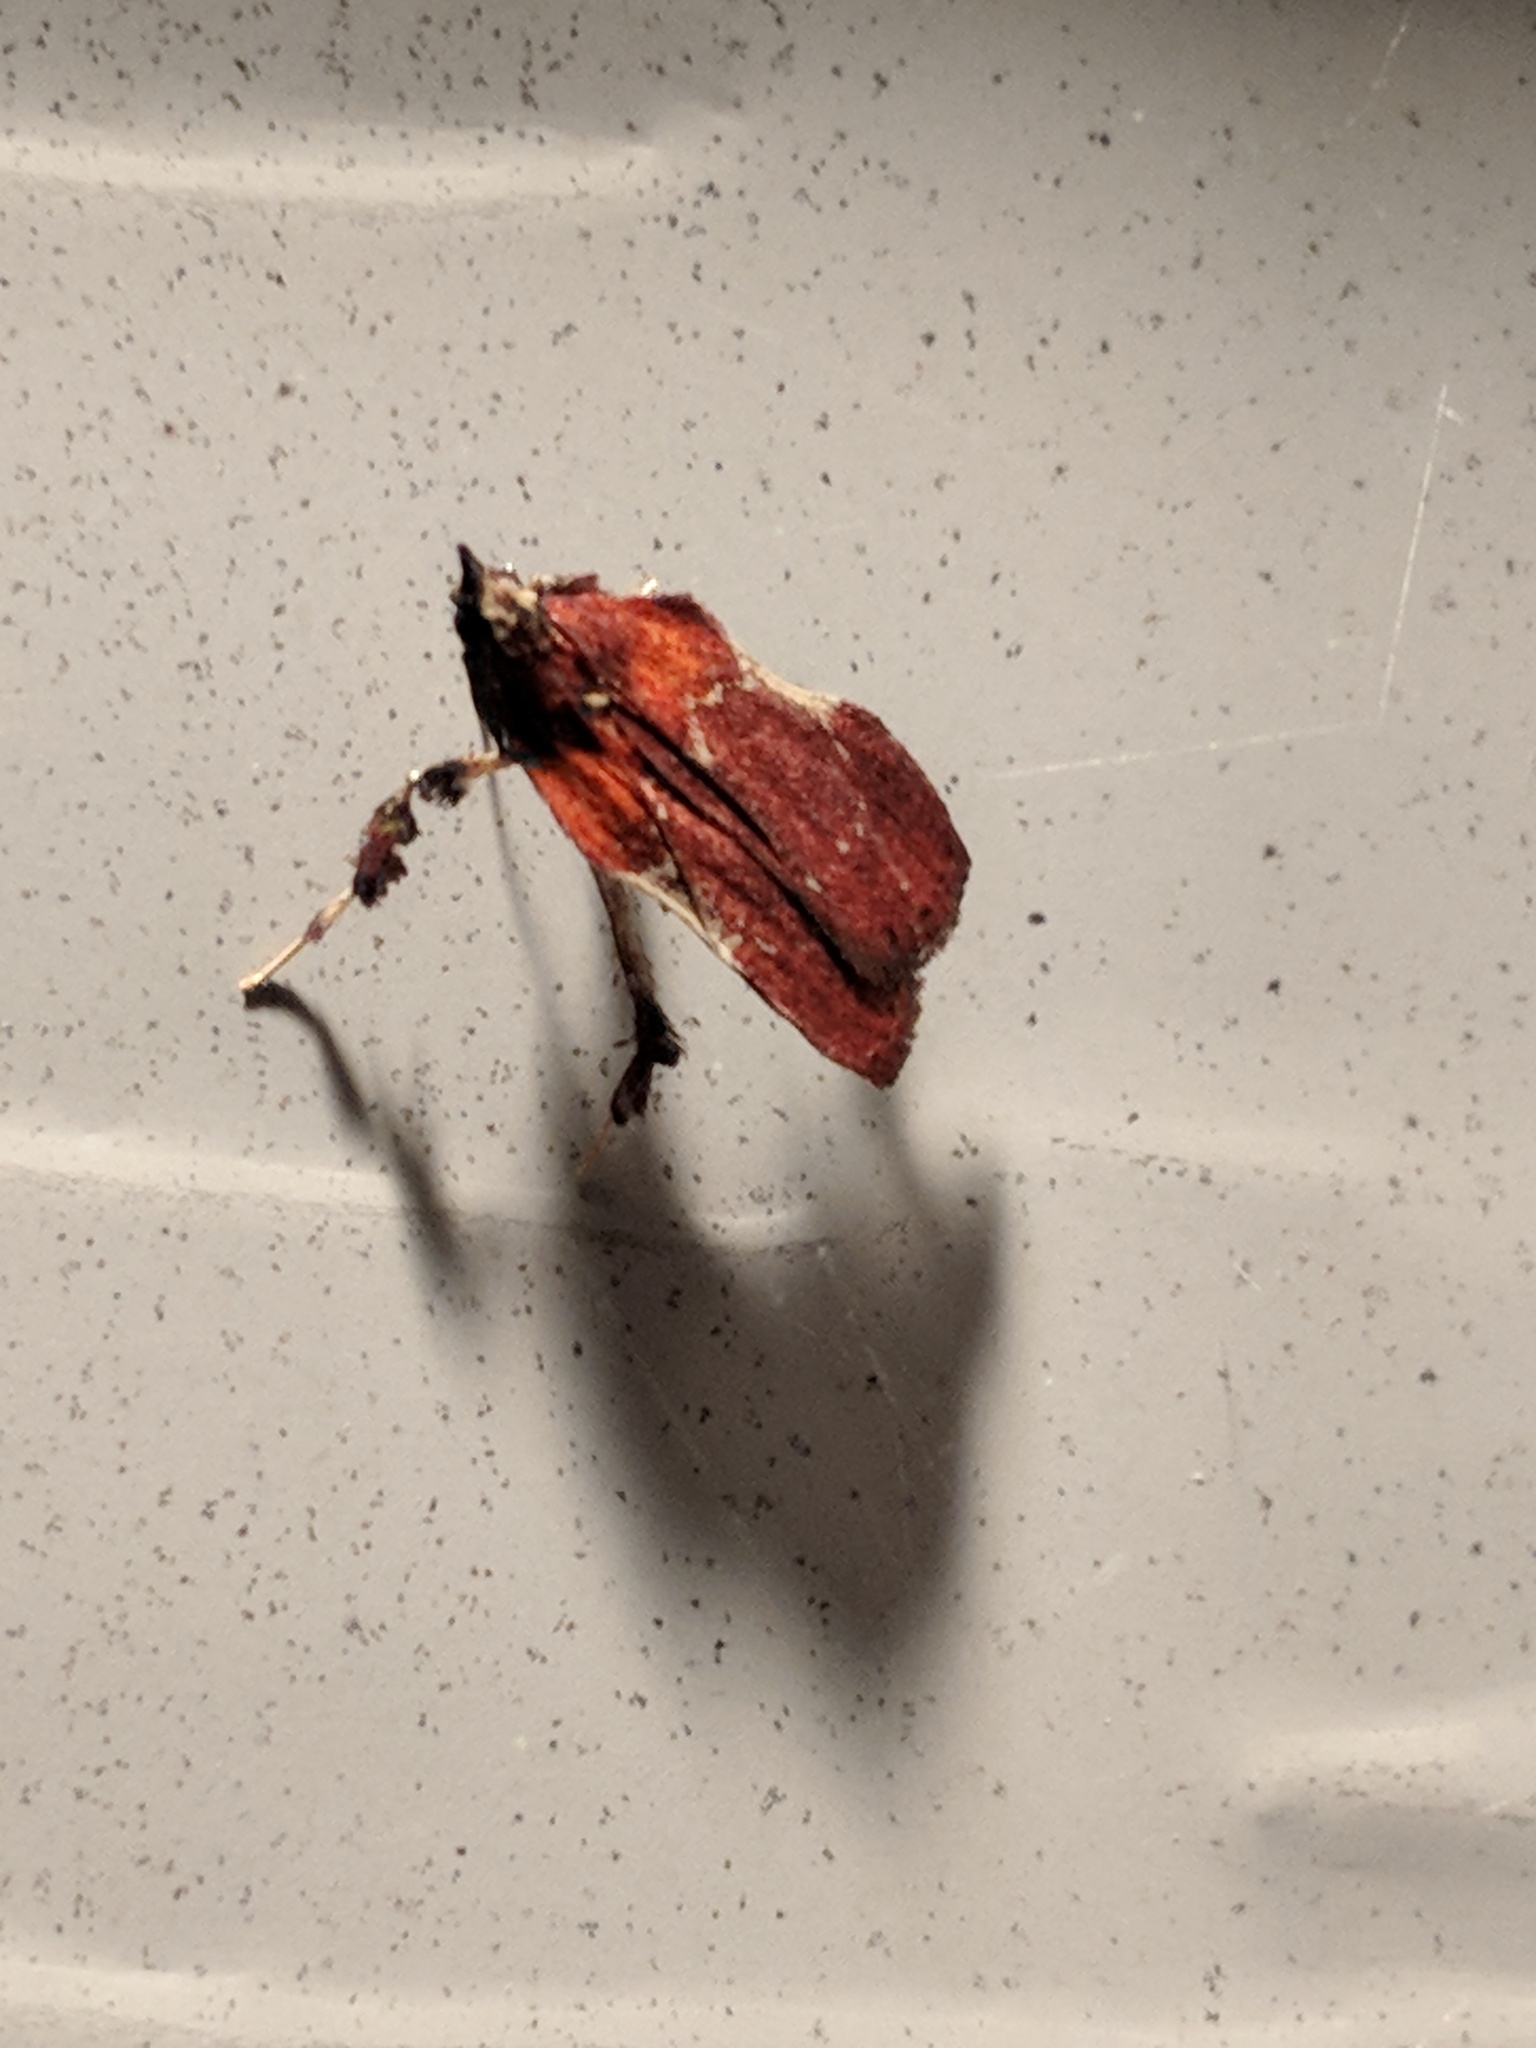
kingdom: Animalia
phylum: Arthropoda
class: Insecta
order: Lepidoptera
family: Pyralidae
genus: Galasa
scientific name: Galasa nigrinodis
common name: Boxwood leaftier moth
